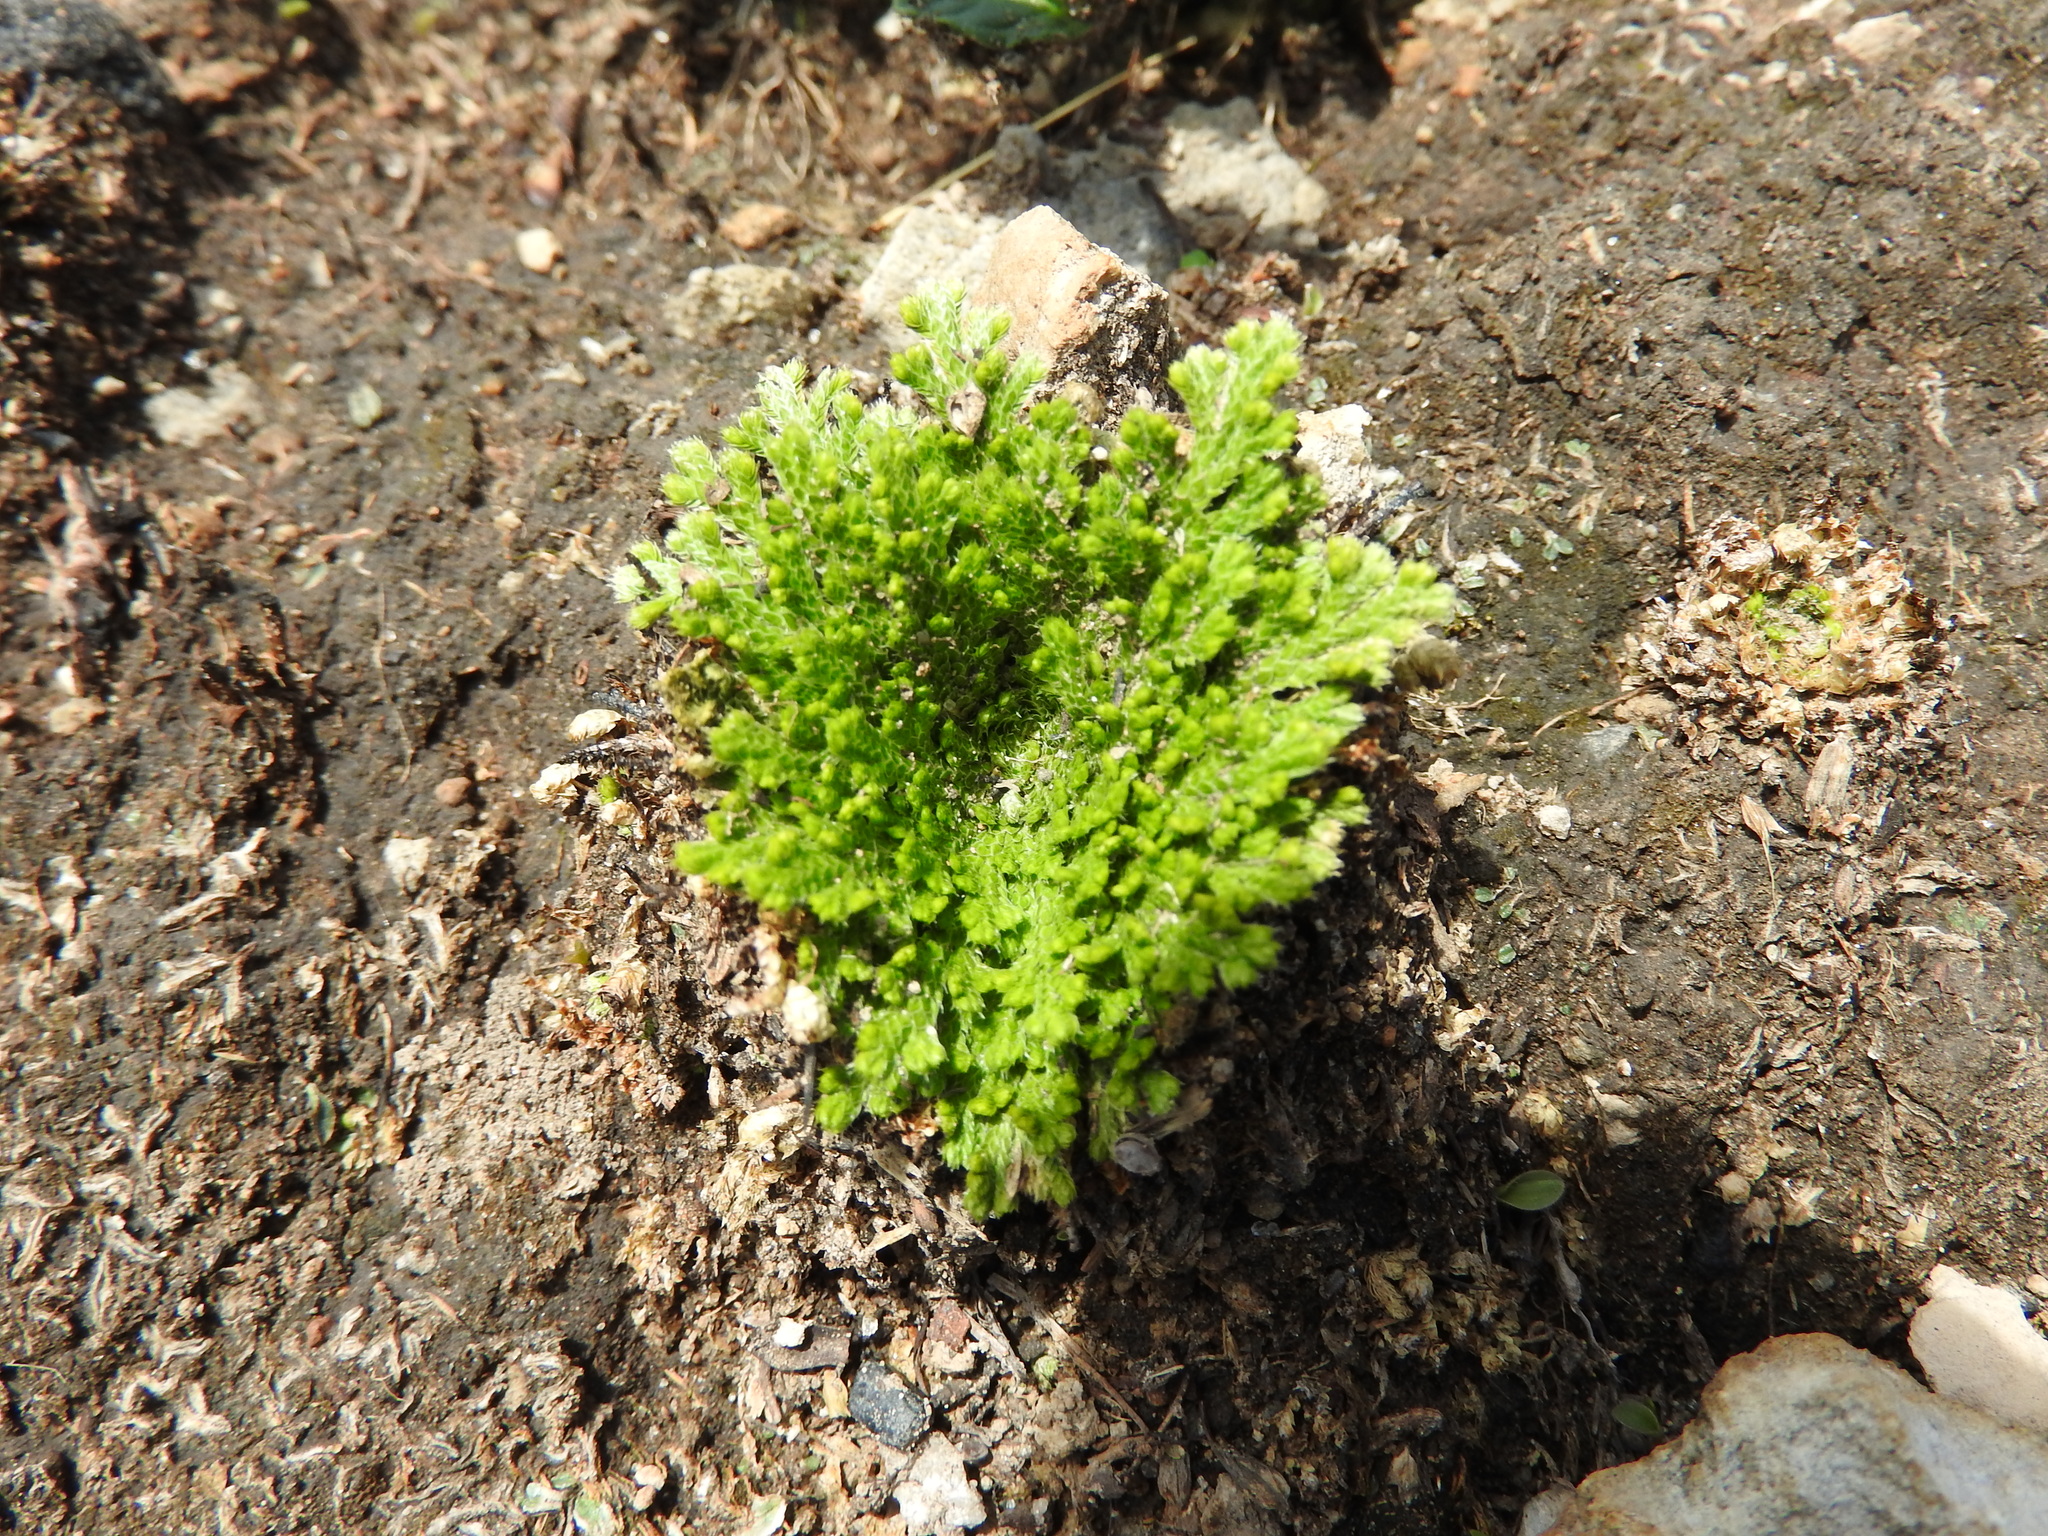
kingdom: Plantae
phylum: Tracheophyta
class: Lycopodiopsida
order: Selaginellales
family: Selaginellaceae
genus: Selaginella
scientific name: Selaginella pallescens
